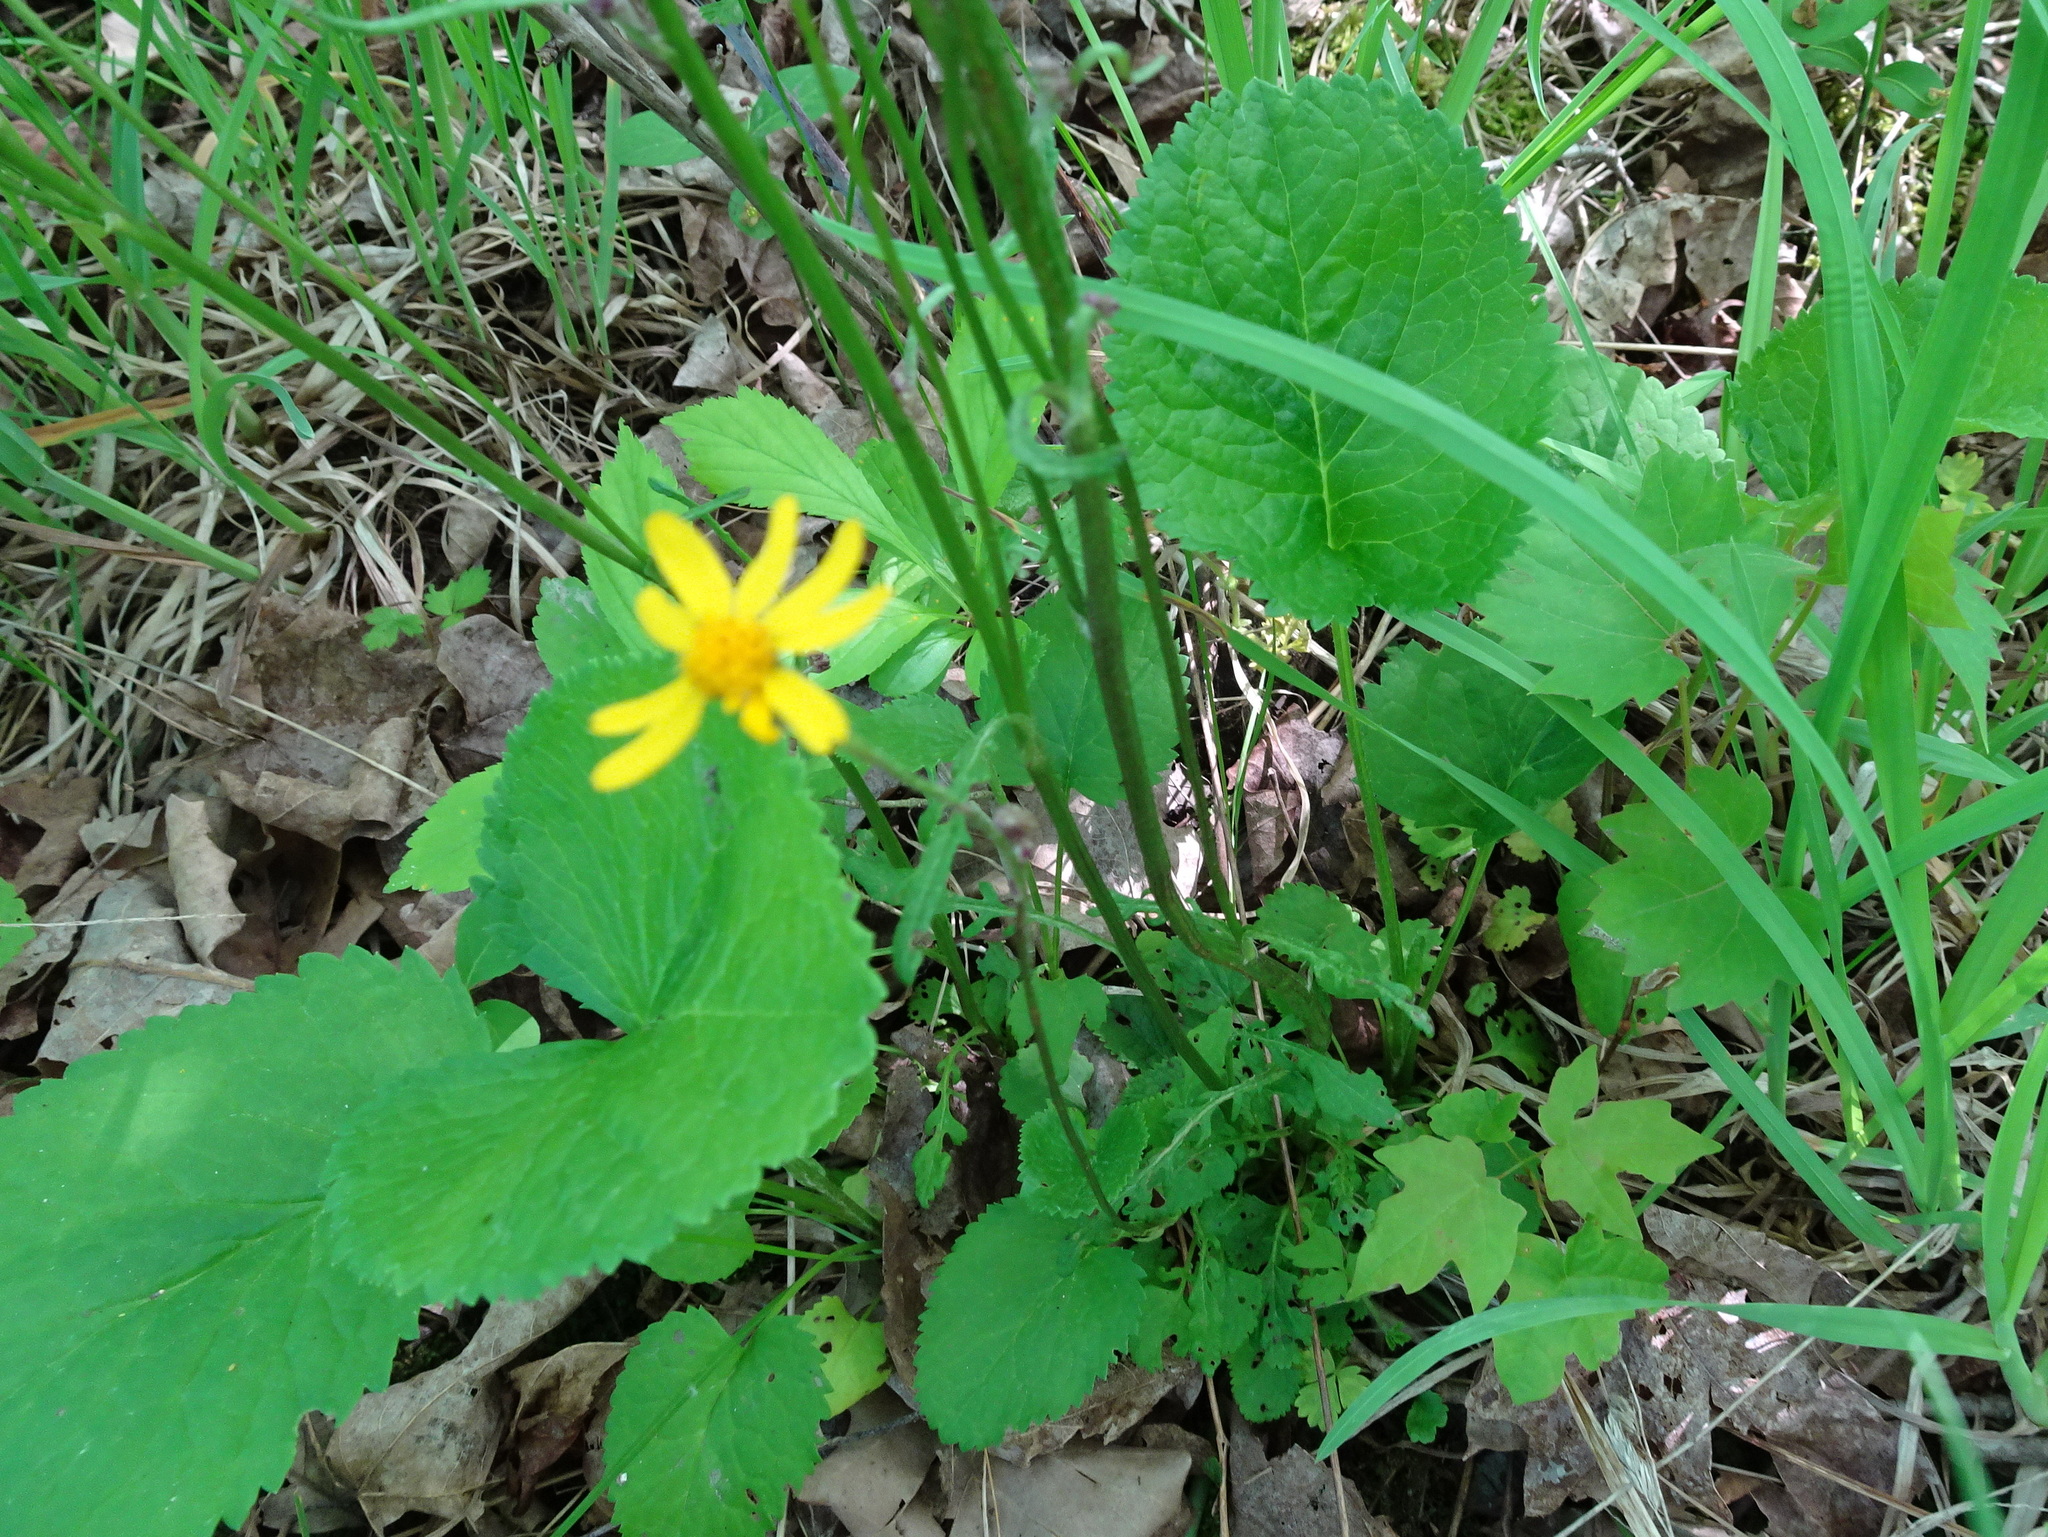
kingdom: Plantae
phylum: Tracheophyta
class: Magnoliopsida
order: Asterales
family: Asteraceae
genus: Packera
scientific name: Packera aurea
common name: Golden groundsel
